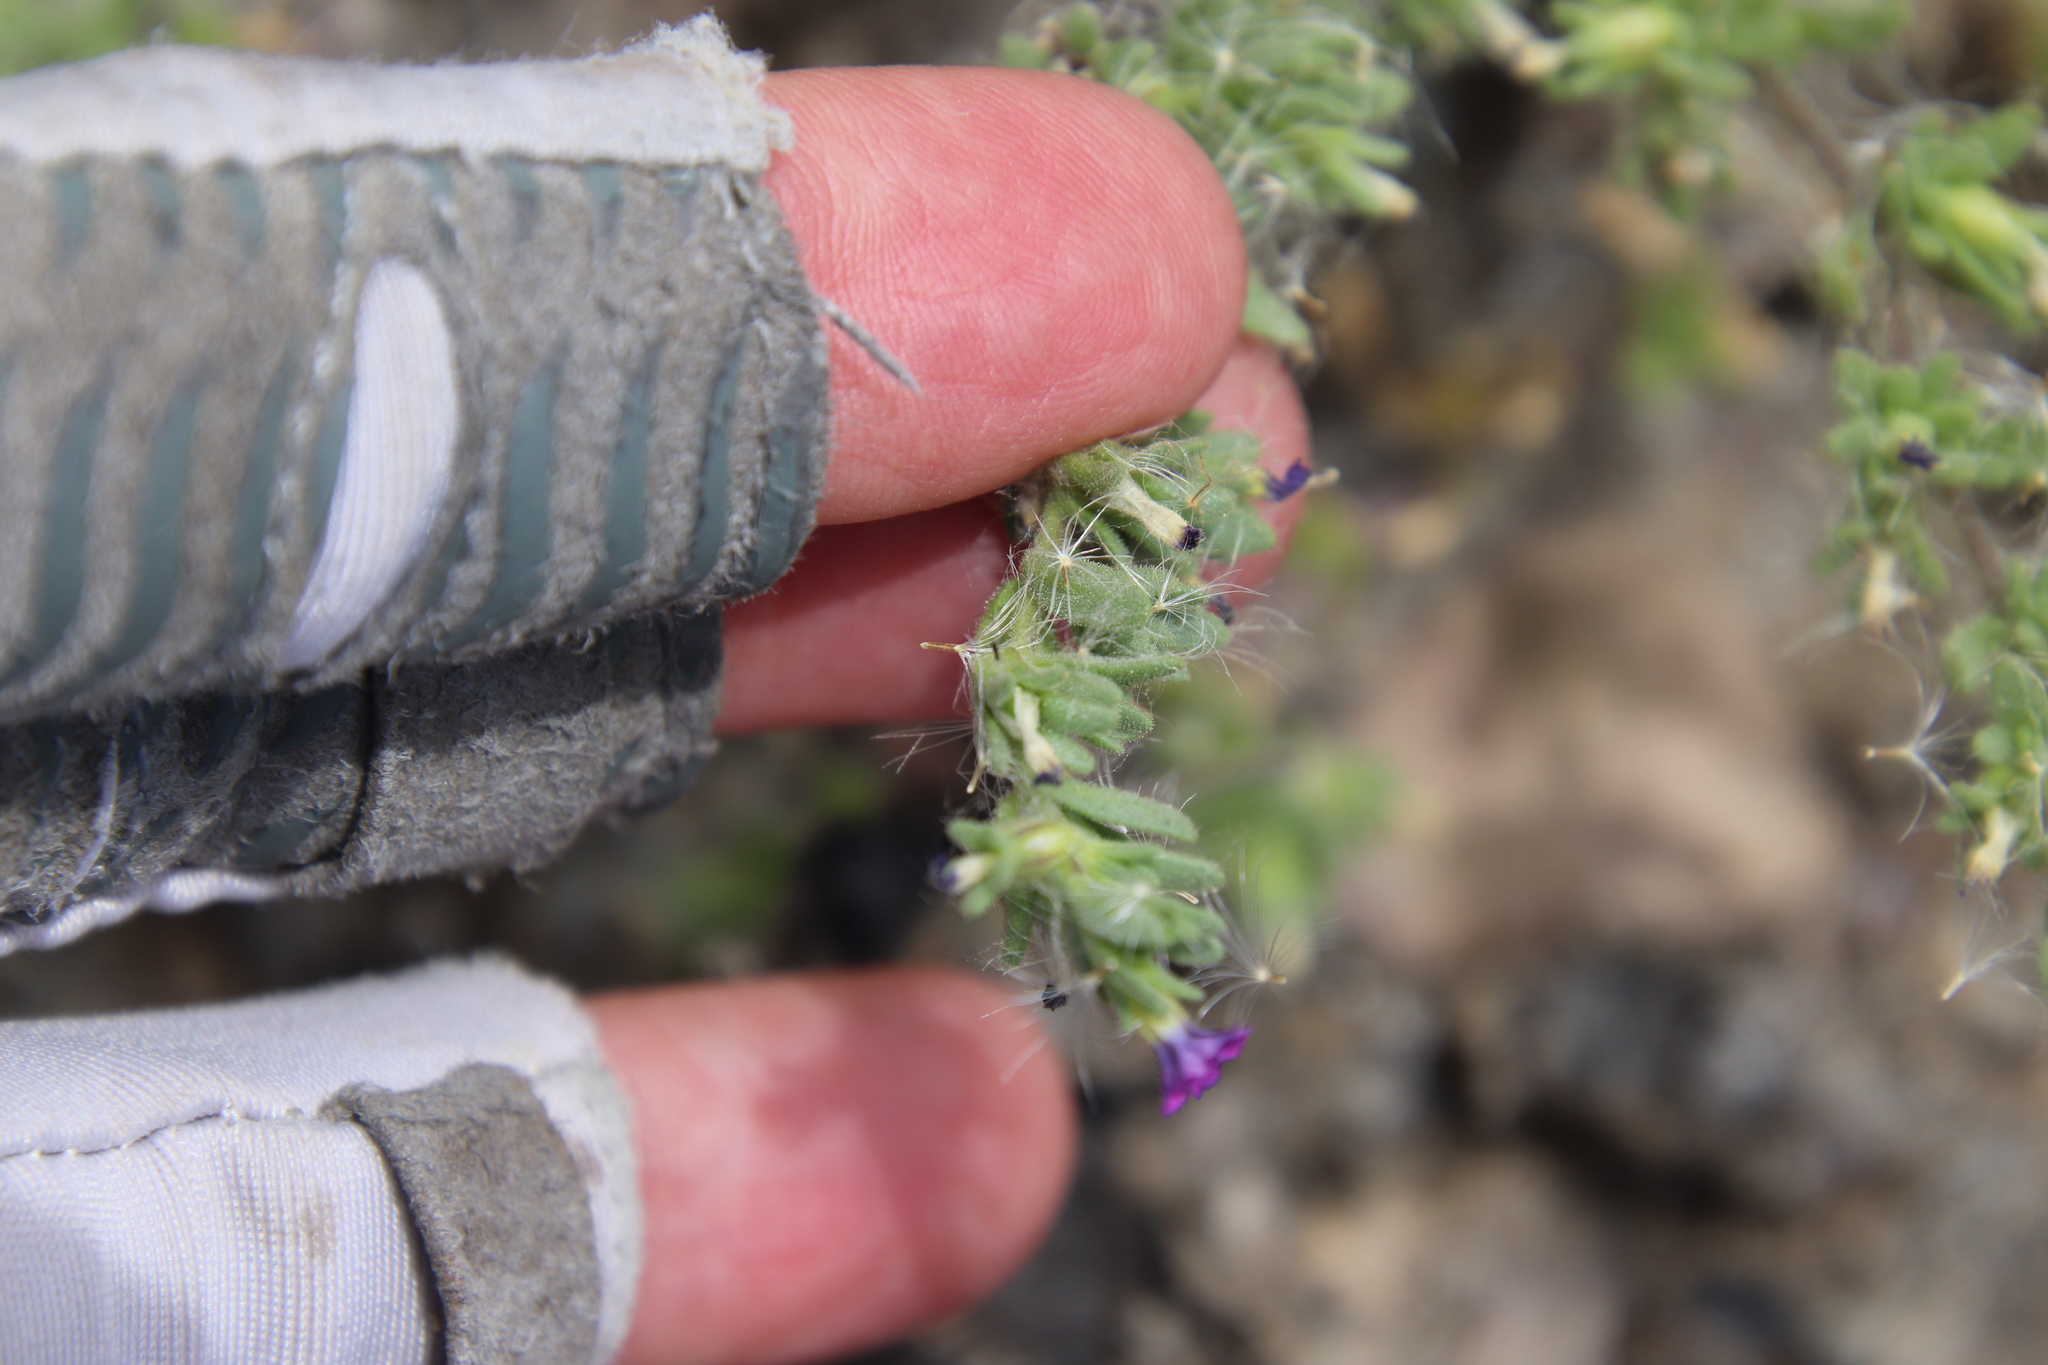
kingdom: Plantae
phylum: Tracheophyta
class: Magnoliopsida
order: Solanales
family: Solanaceae
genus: Calibrachoa
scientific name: Calibrachoa parviflora
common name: Seaside petunia
